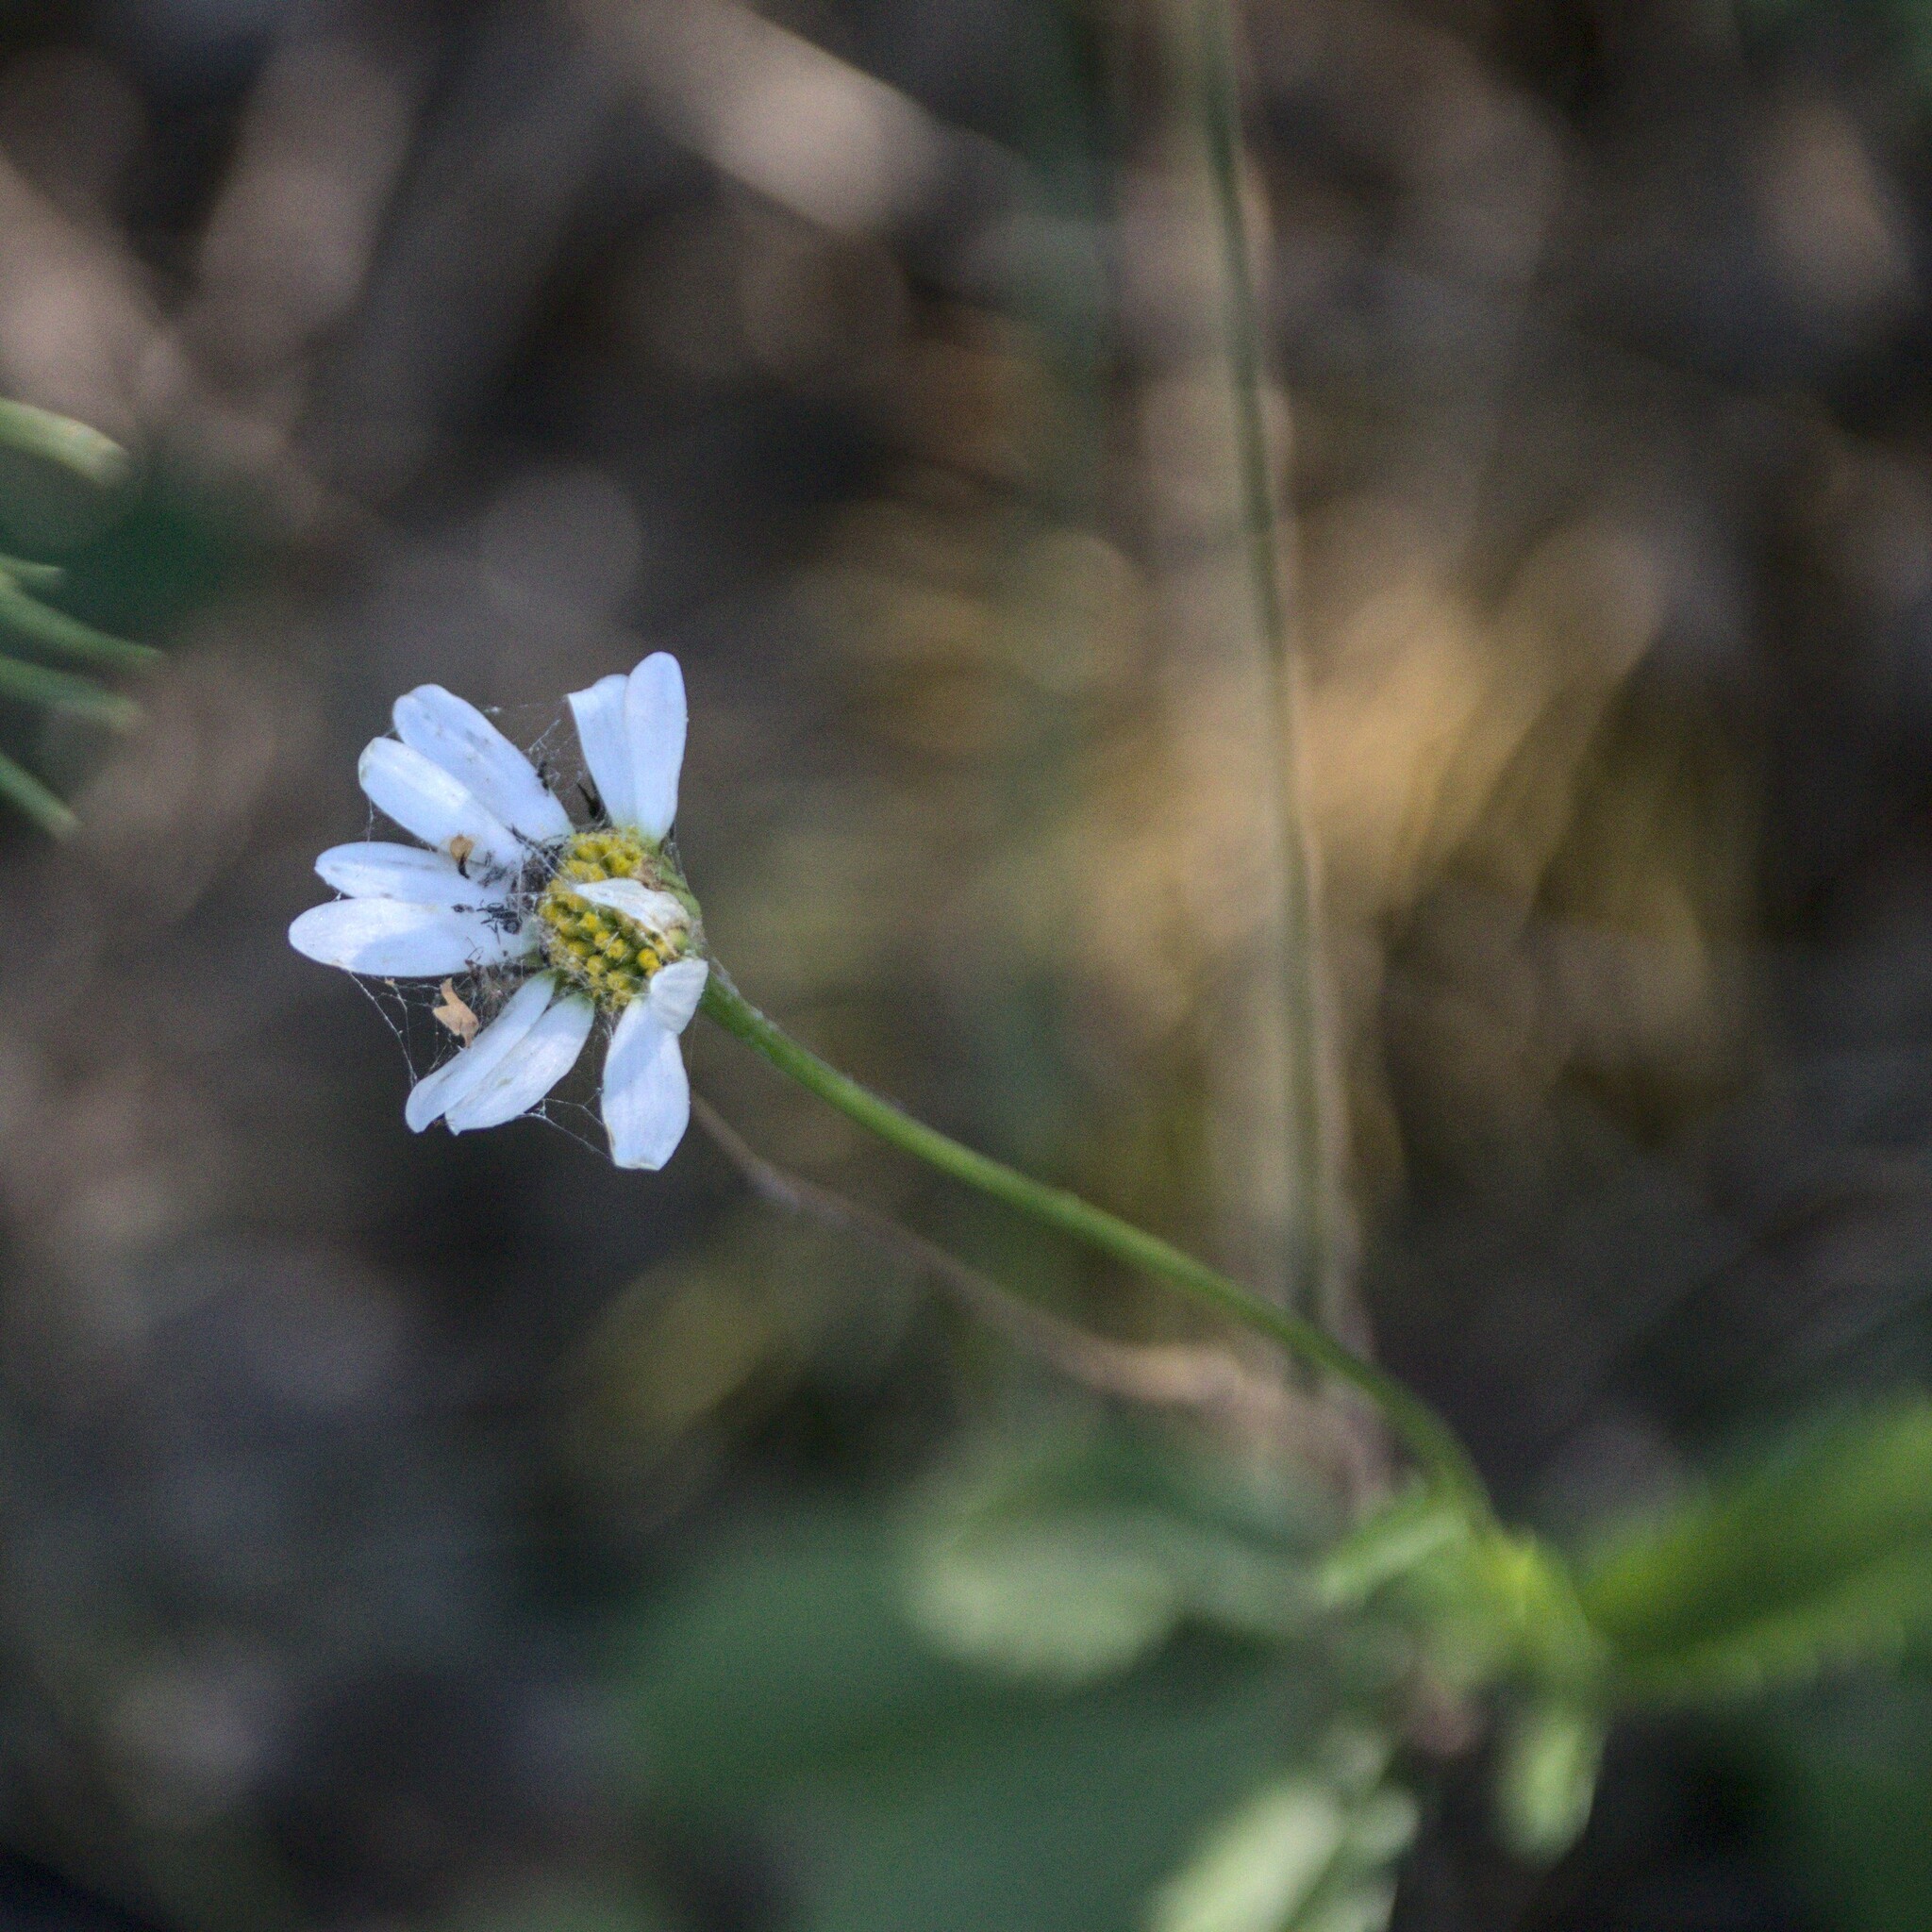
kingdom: Plantae
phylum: Tracheophyta
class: Magnoliopsida
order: Asterales
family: Asteraceae
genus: Leucanthemum
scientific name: Leucanthemum ircutianum
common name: Daisy
